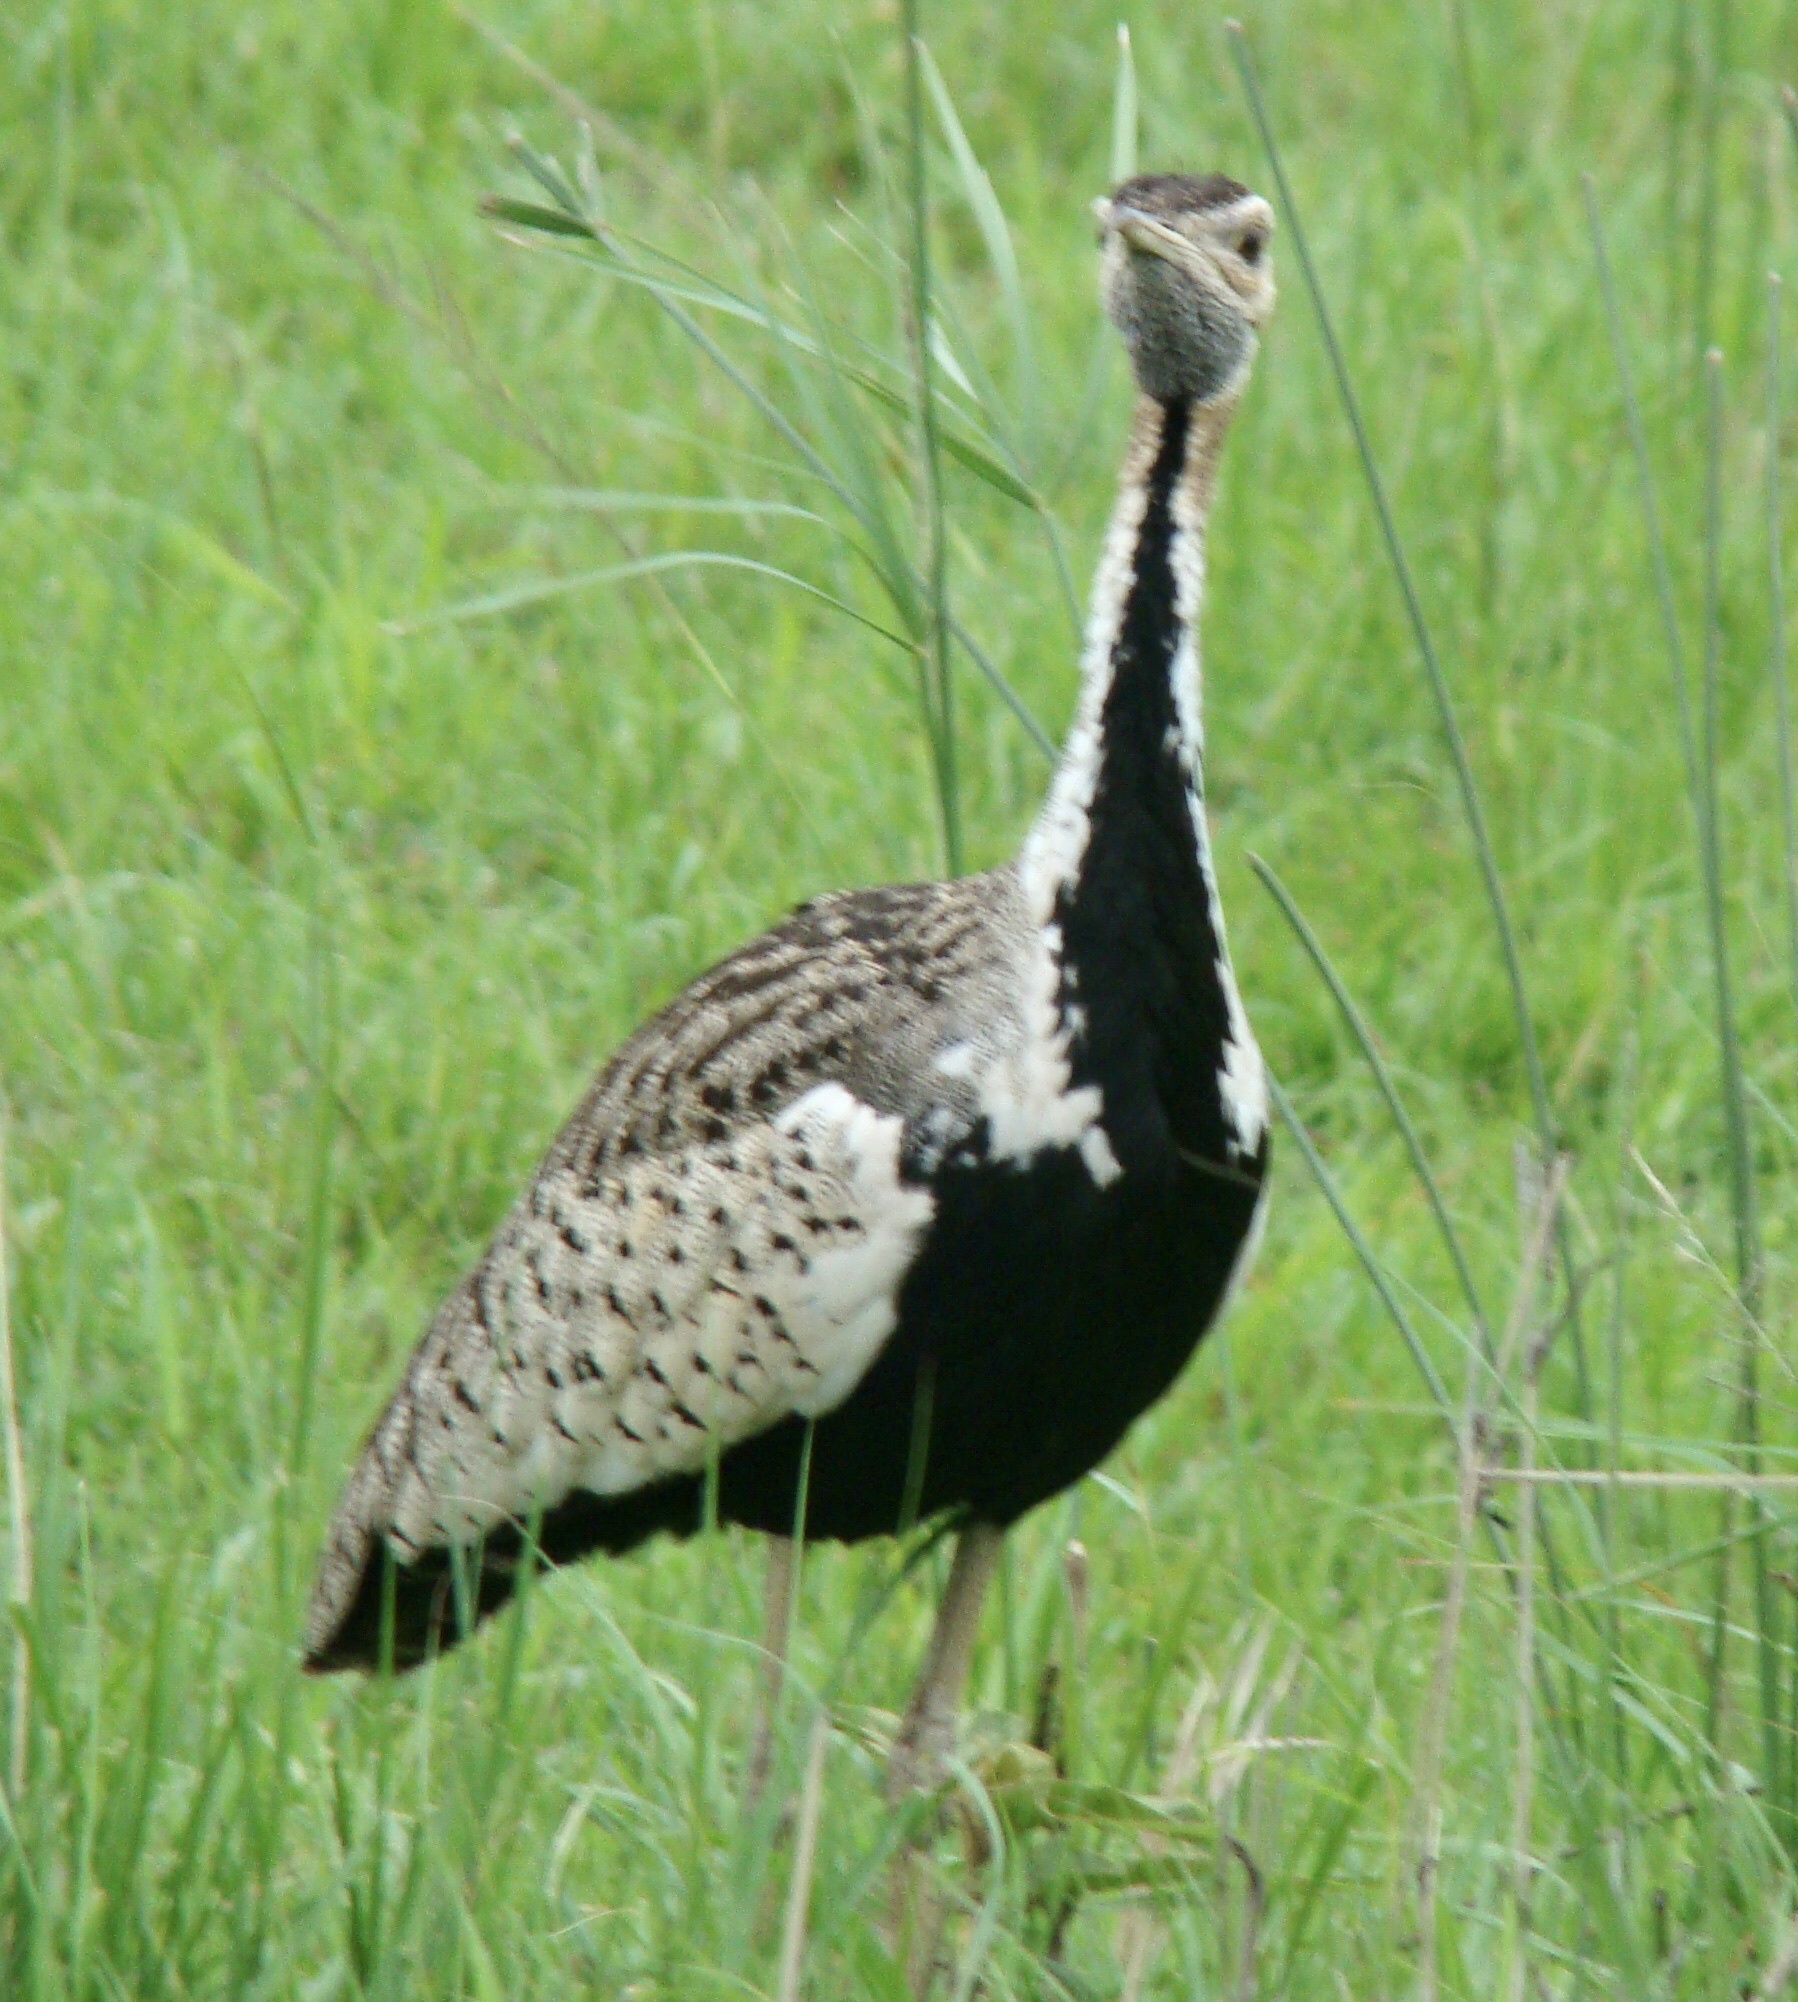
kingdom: Animalia
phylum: Chordata
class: Aves
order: Otidiformes
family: Otididae
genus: Lissotis
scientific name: Lissotis melanogaster
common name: Black-bellied bustard
